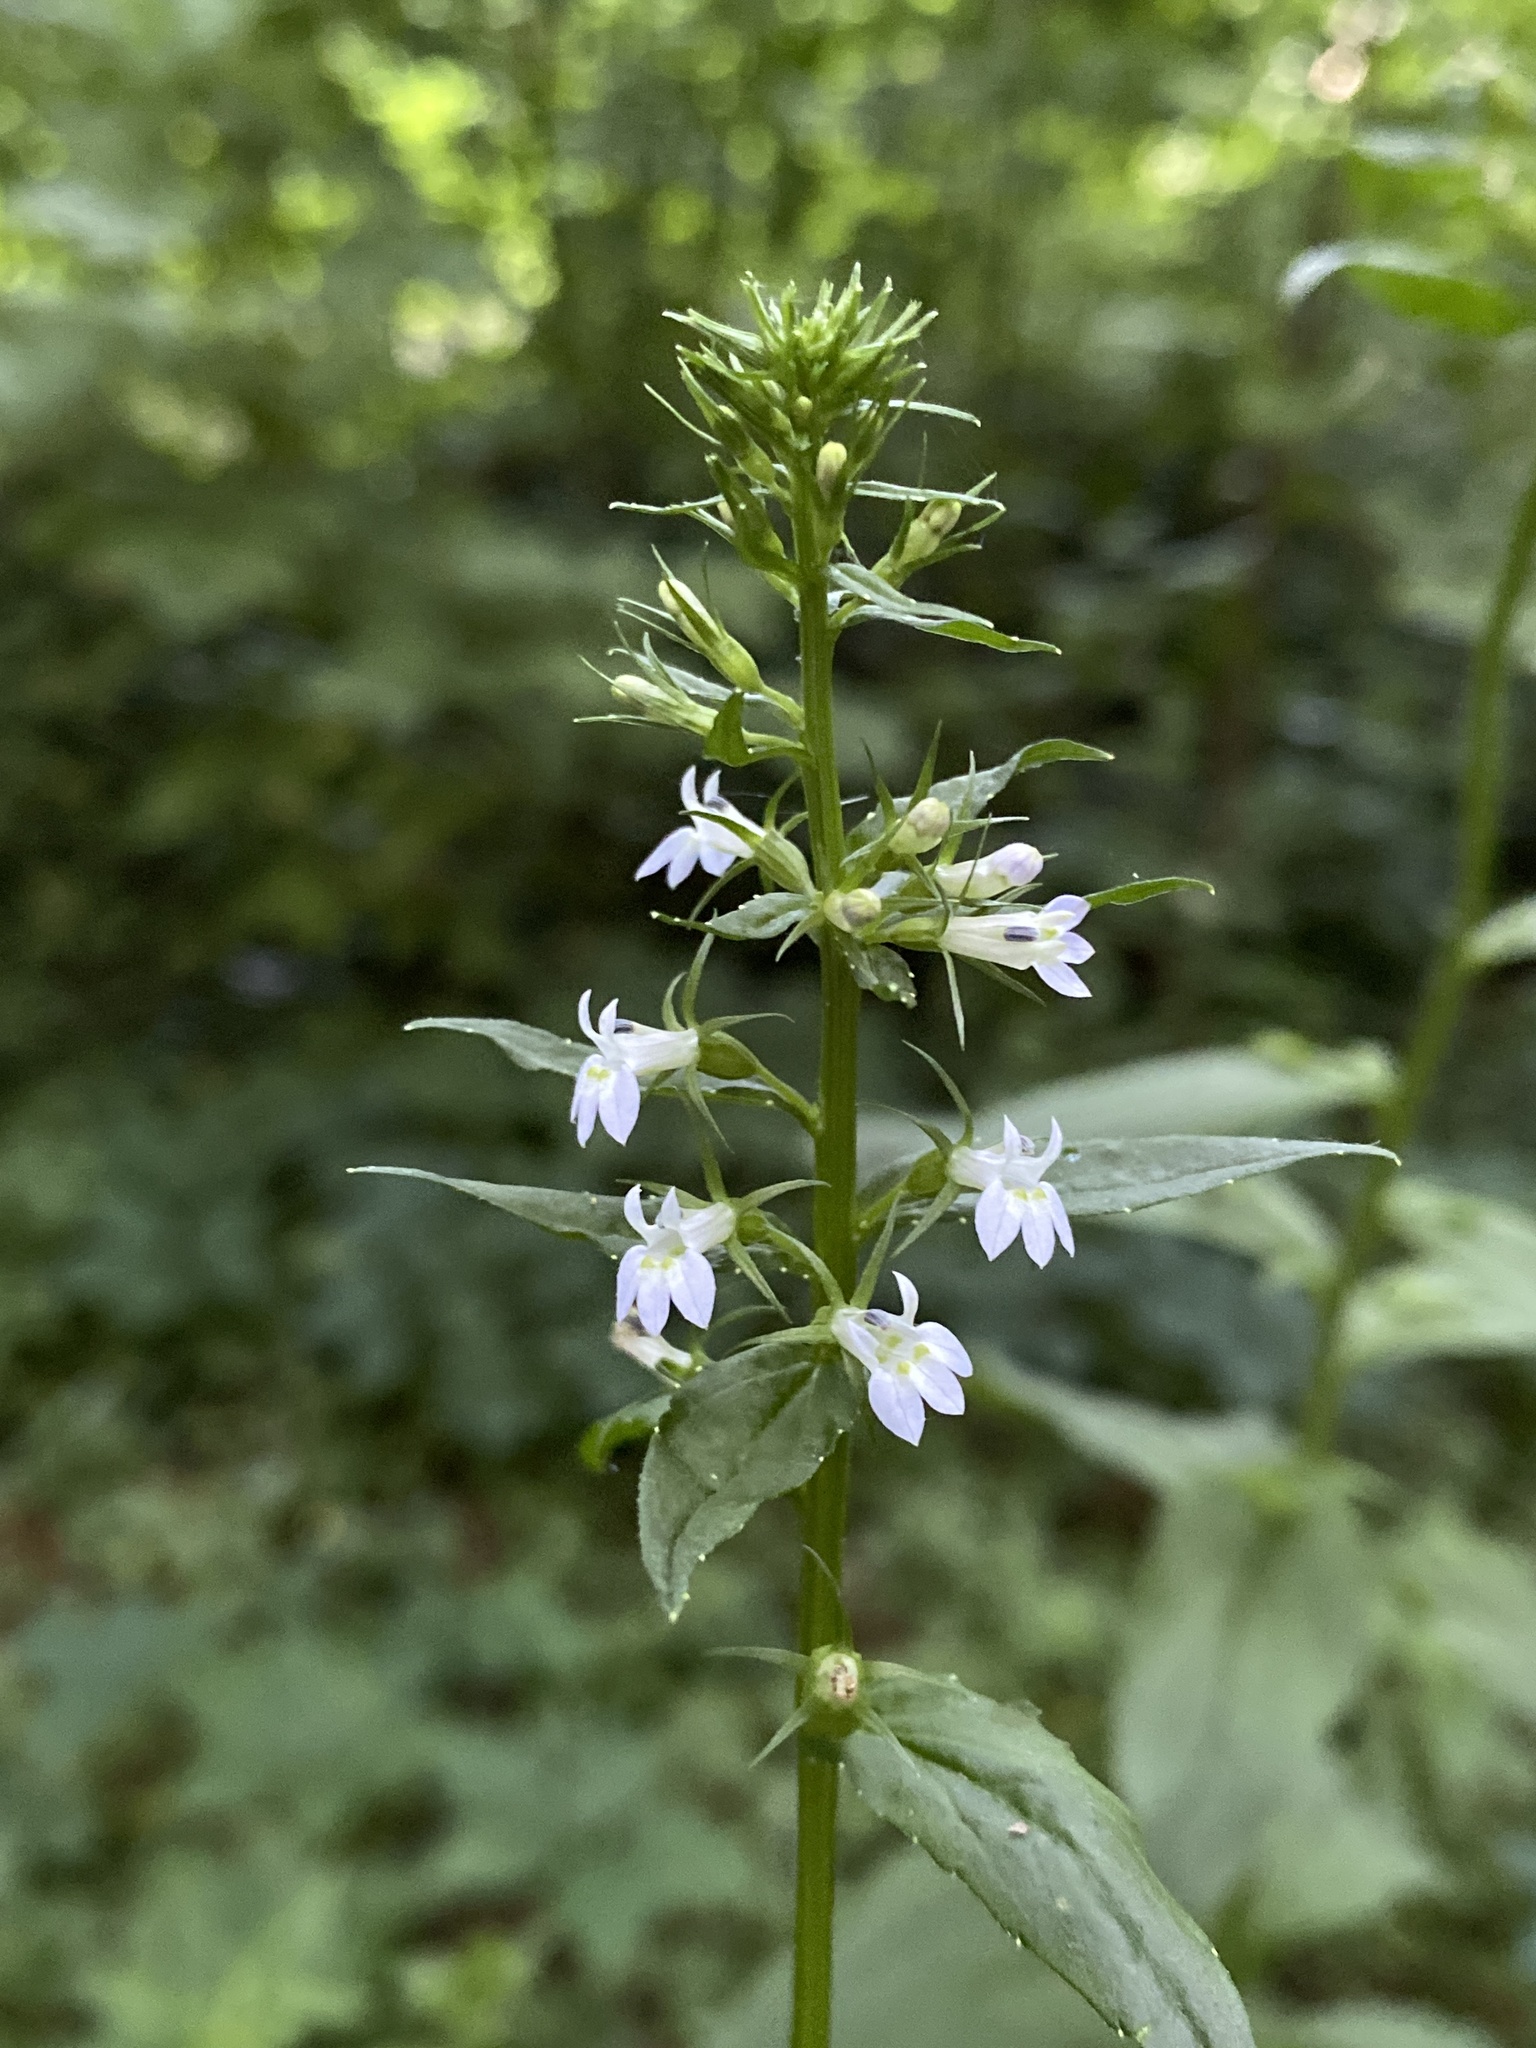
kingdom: Plantae
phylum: Tracheophyta
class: Magnoliopsida
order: Asterales
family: Campanulaceae
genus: Lobelia
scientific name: Lobelia inflata
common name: Indian tobacco
